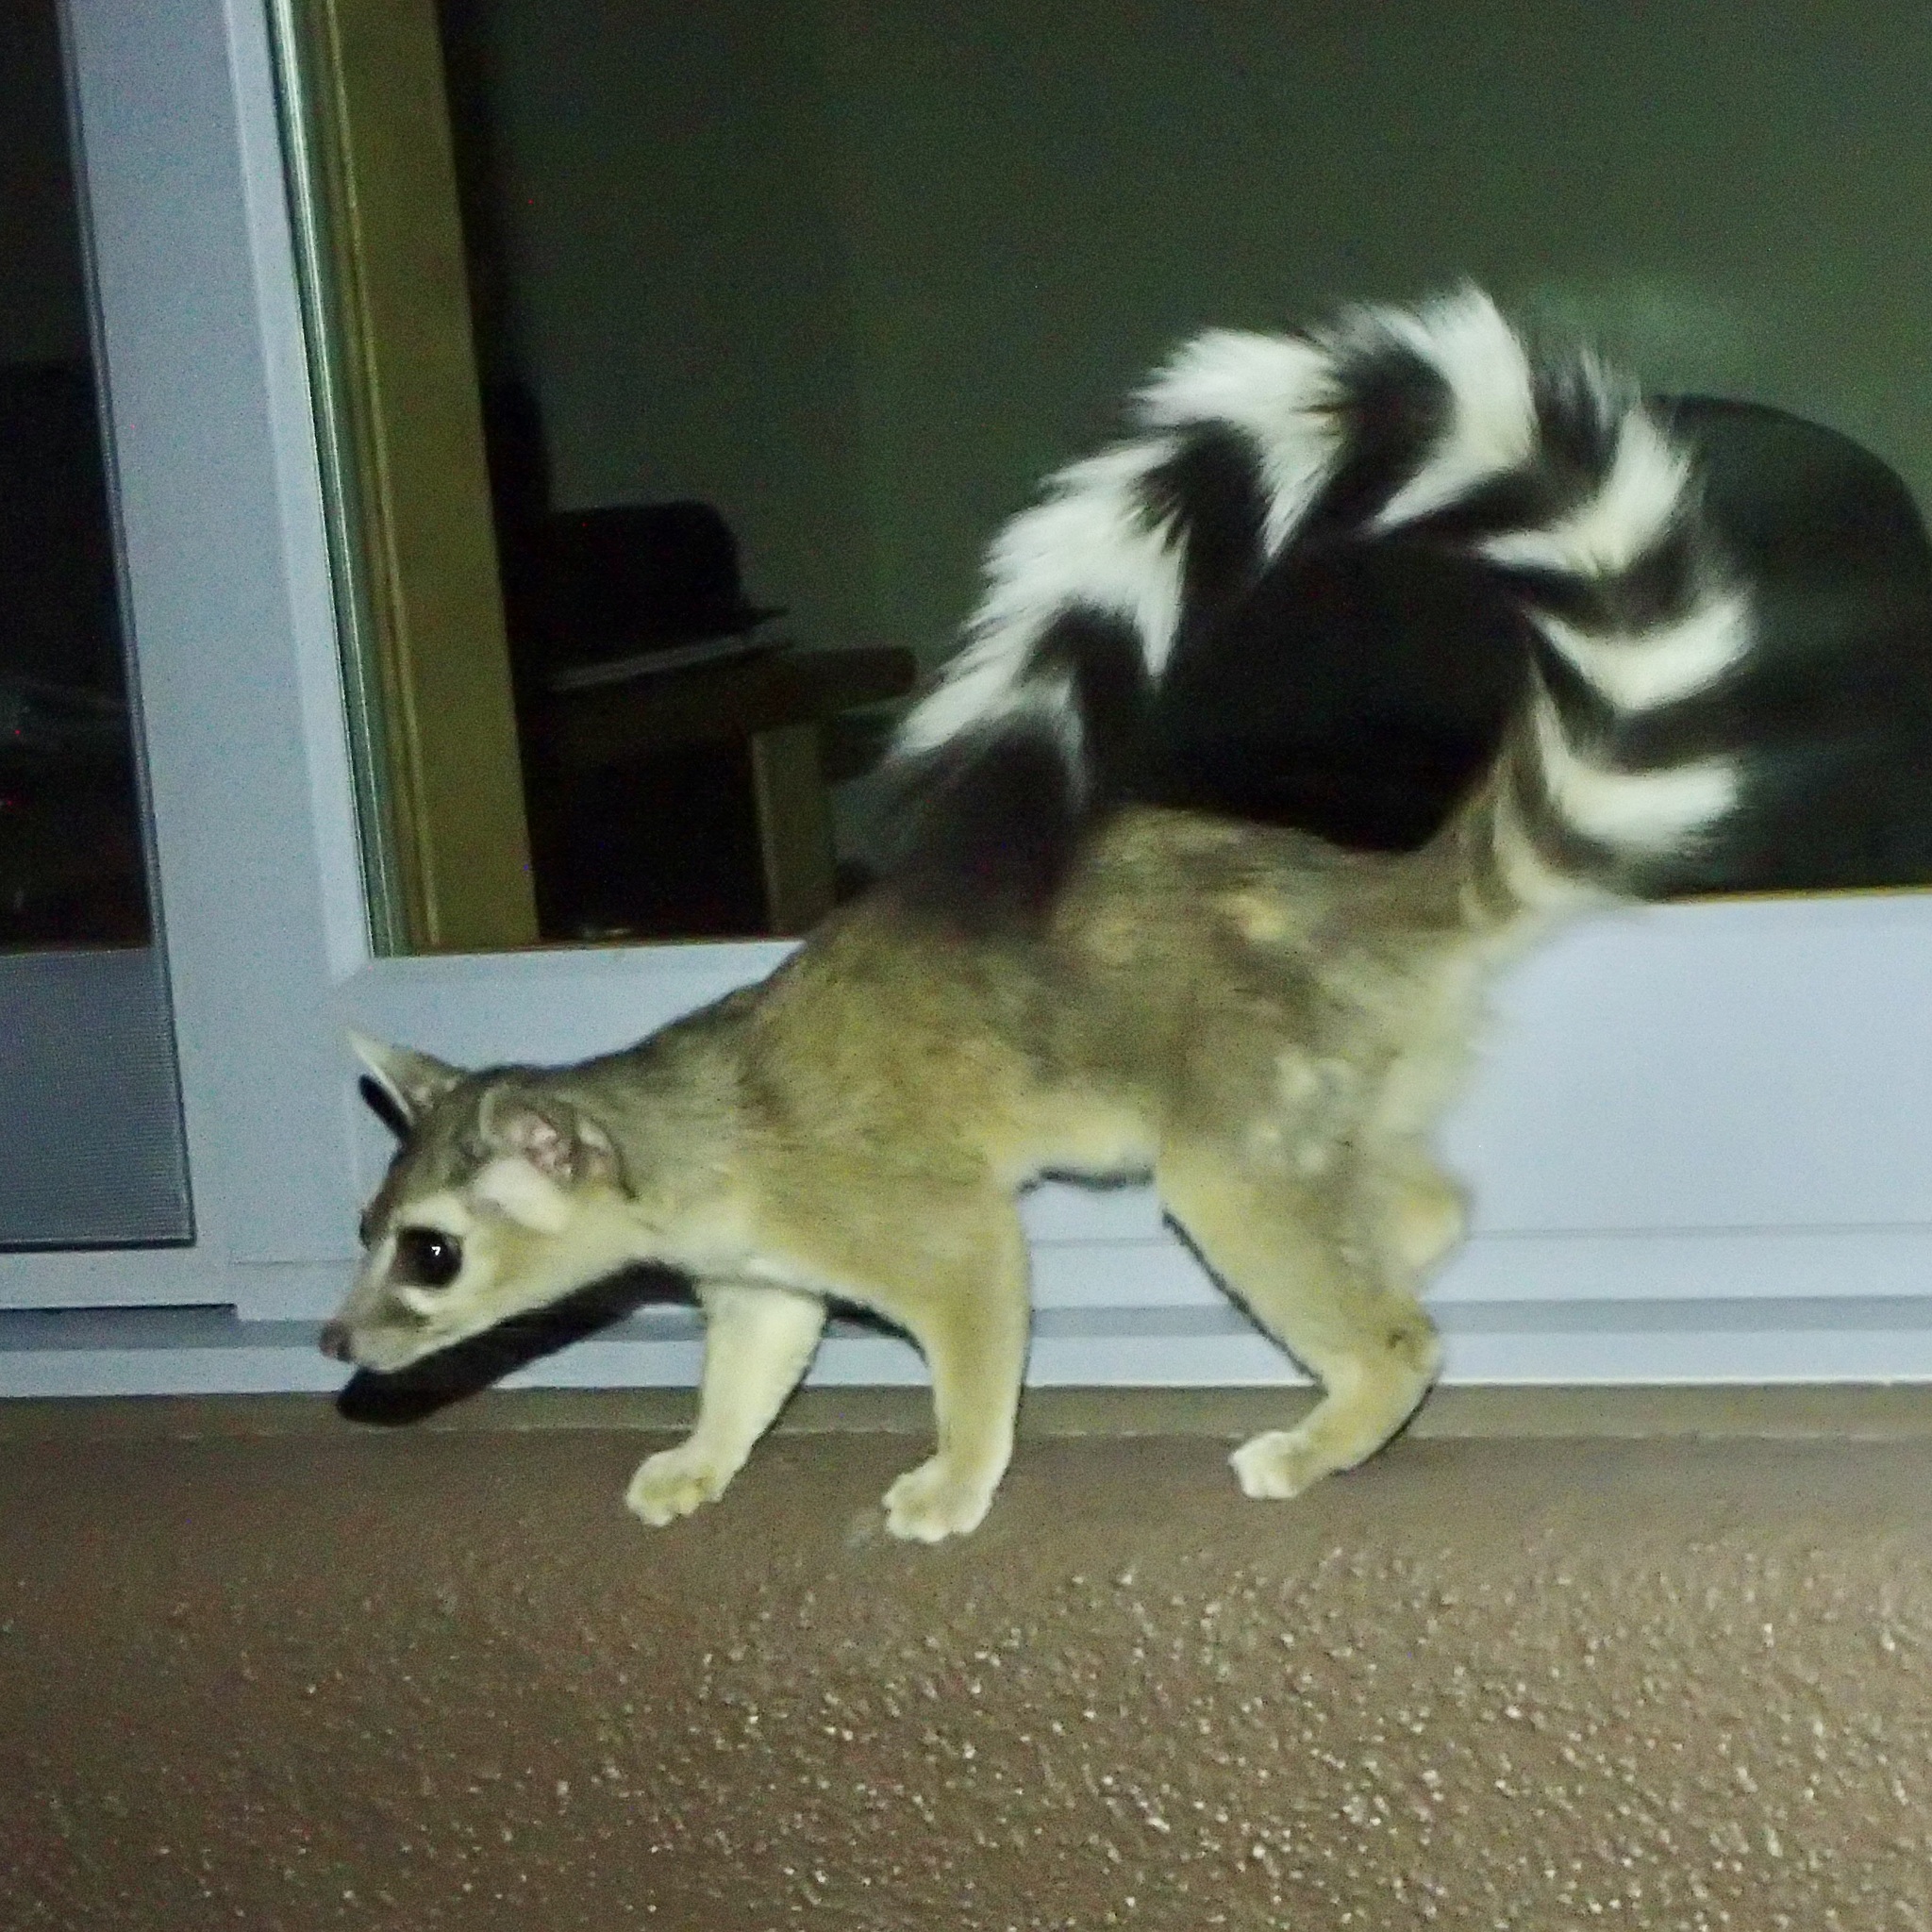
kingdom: Animalia
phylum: Chordata
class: Mammalia
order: Carnivora
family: Procyonidae
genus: Bassariscus
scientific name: Bassariscus astutus
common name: Ringtail
